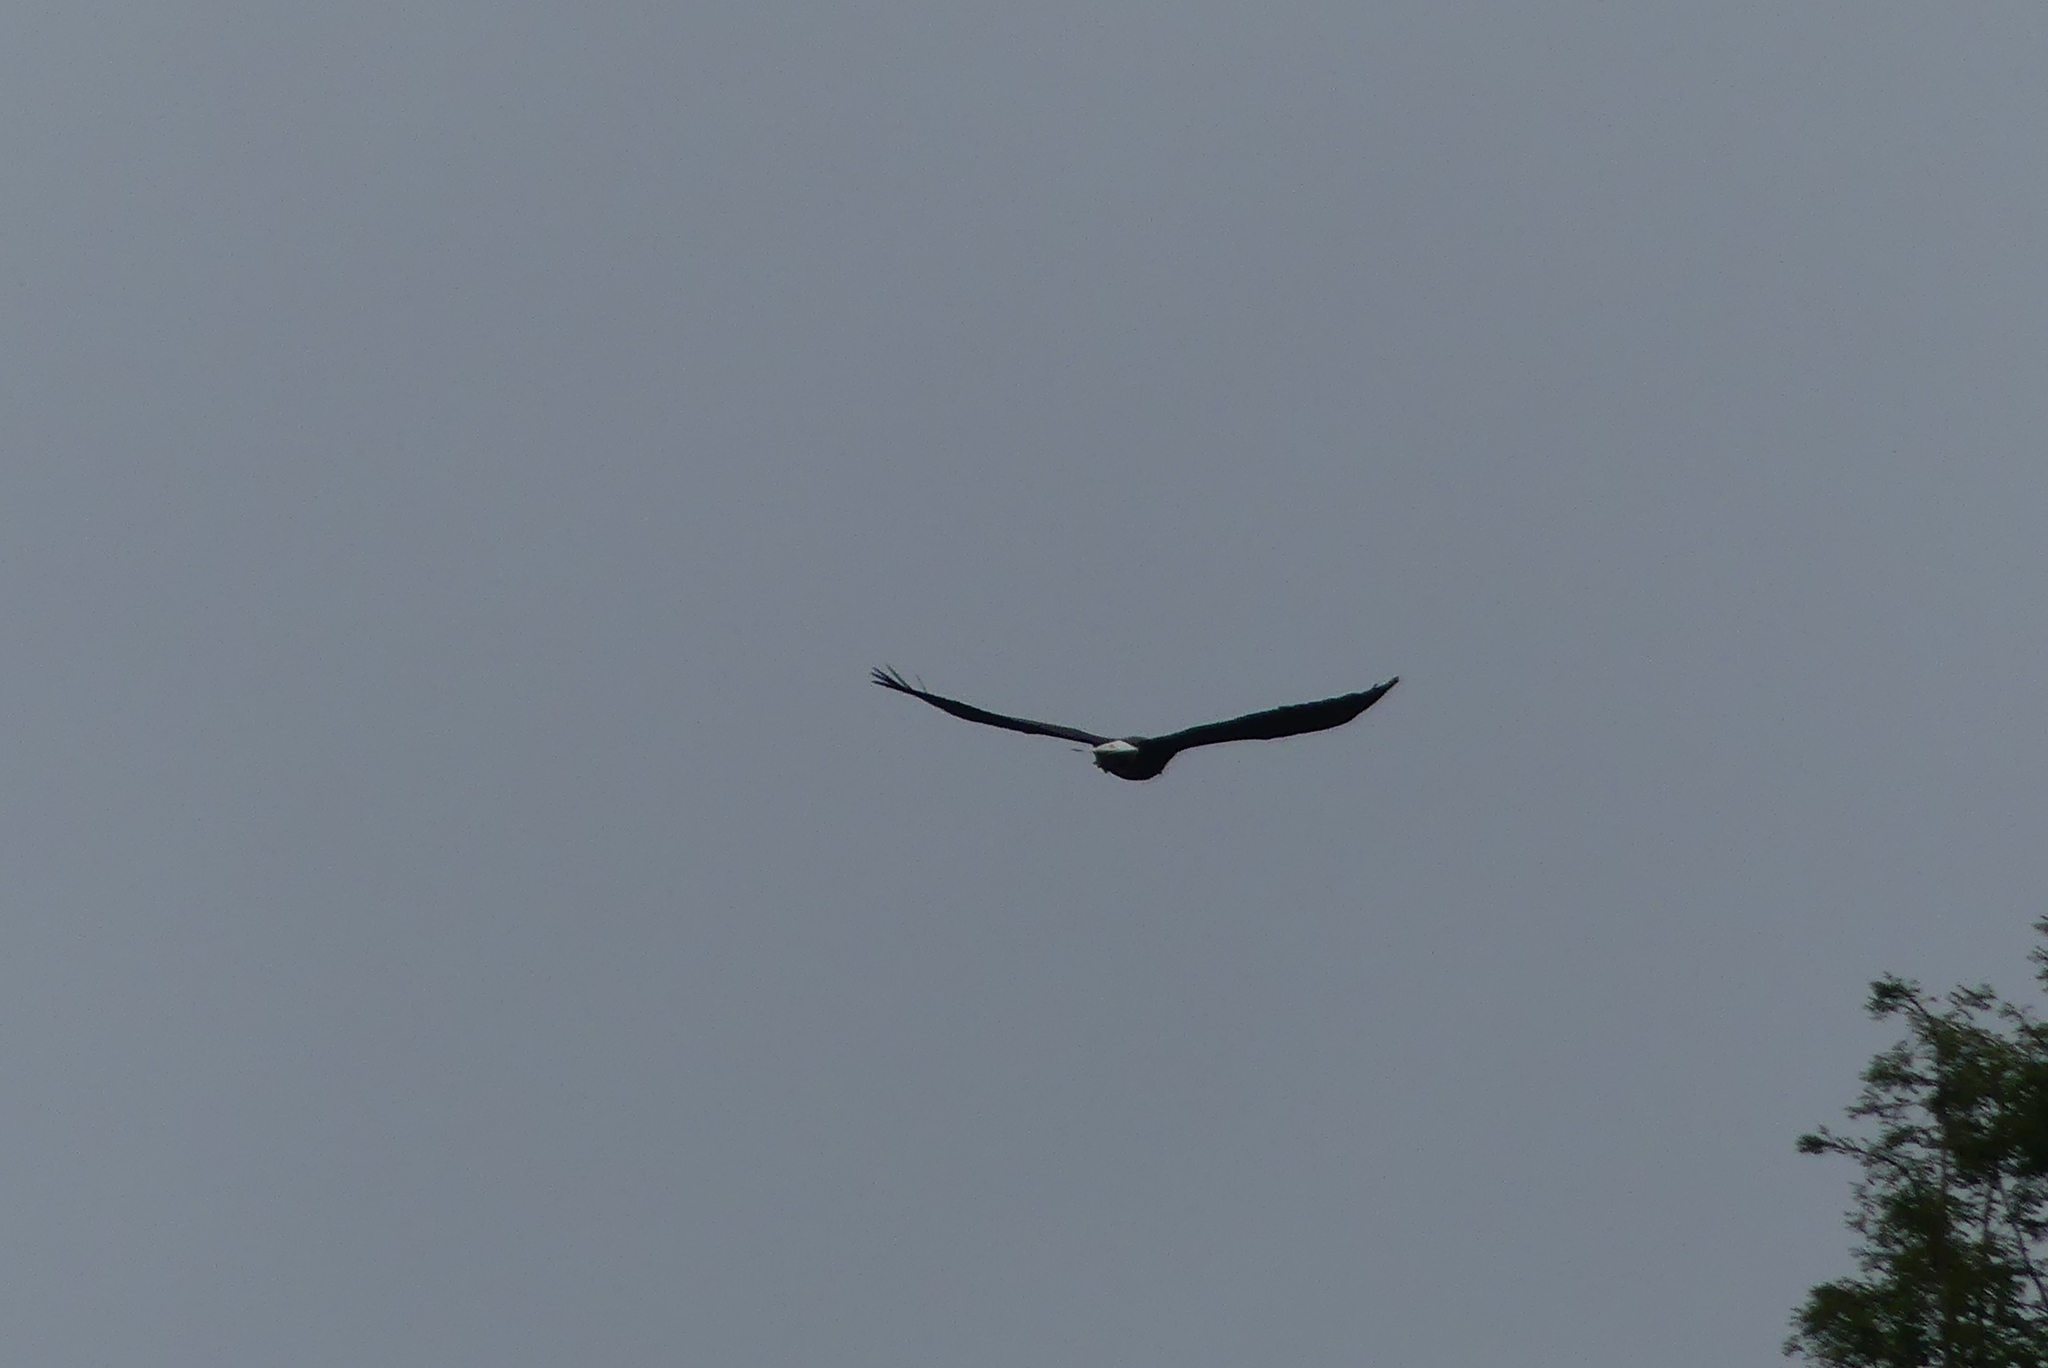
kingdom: Animalia
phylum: Chordata
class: Aves
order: Accipitriformes
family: Accipitridae
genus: Haliaeetus
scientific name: Haliaeetus leucocephalus
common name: Bald eagle
